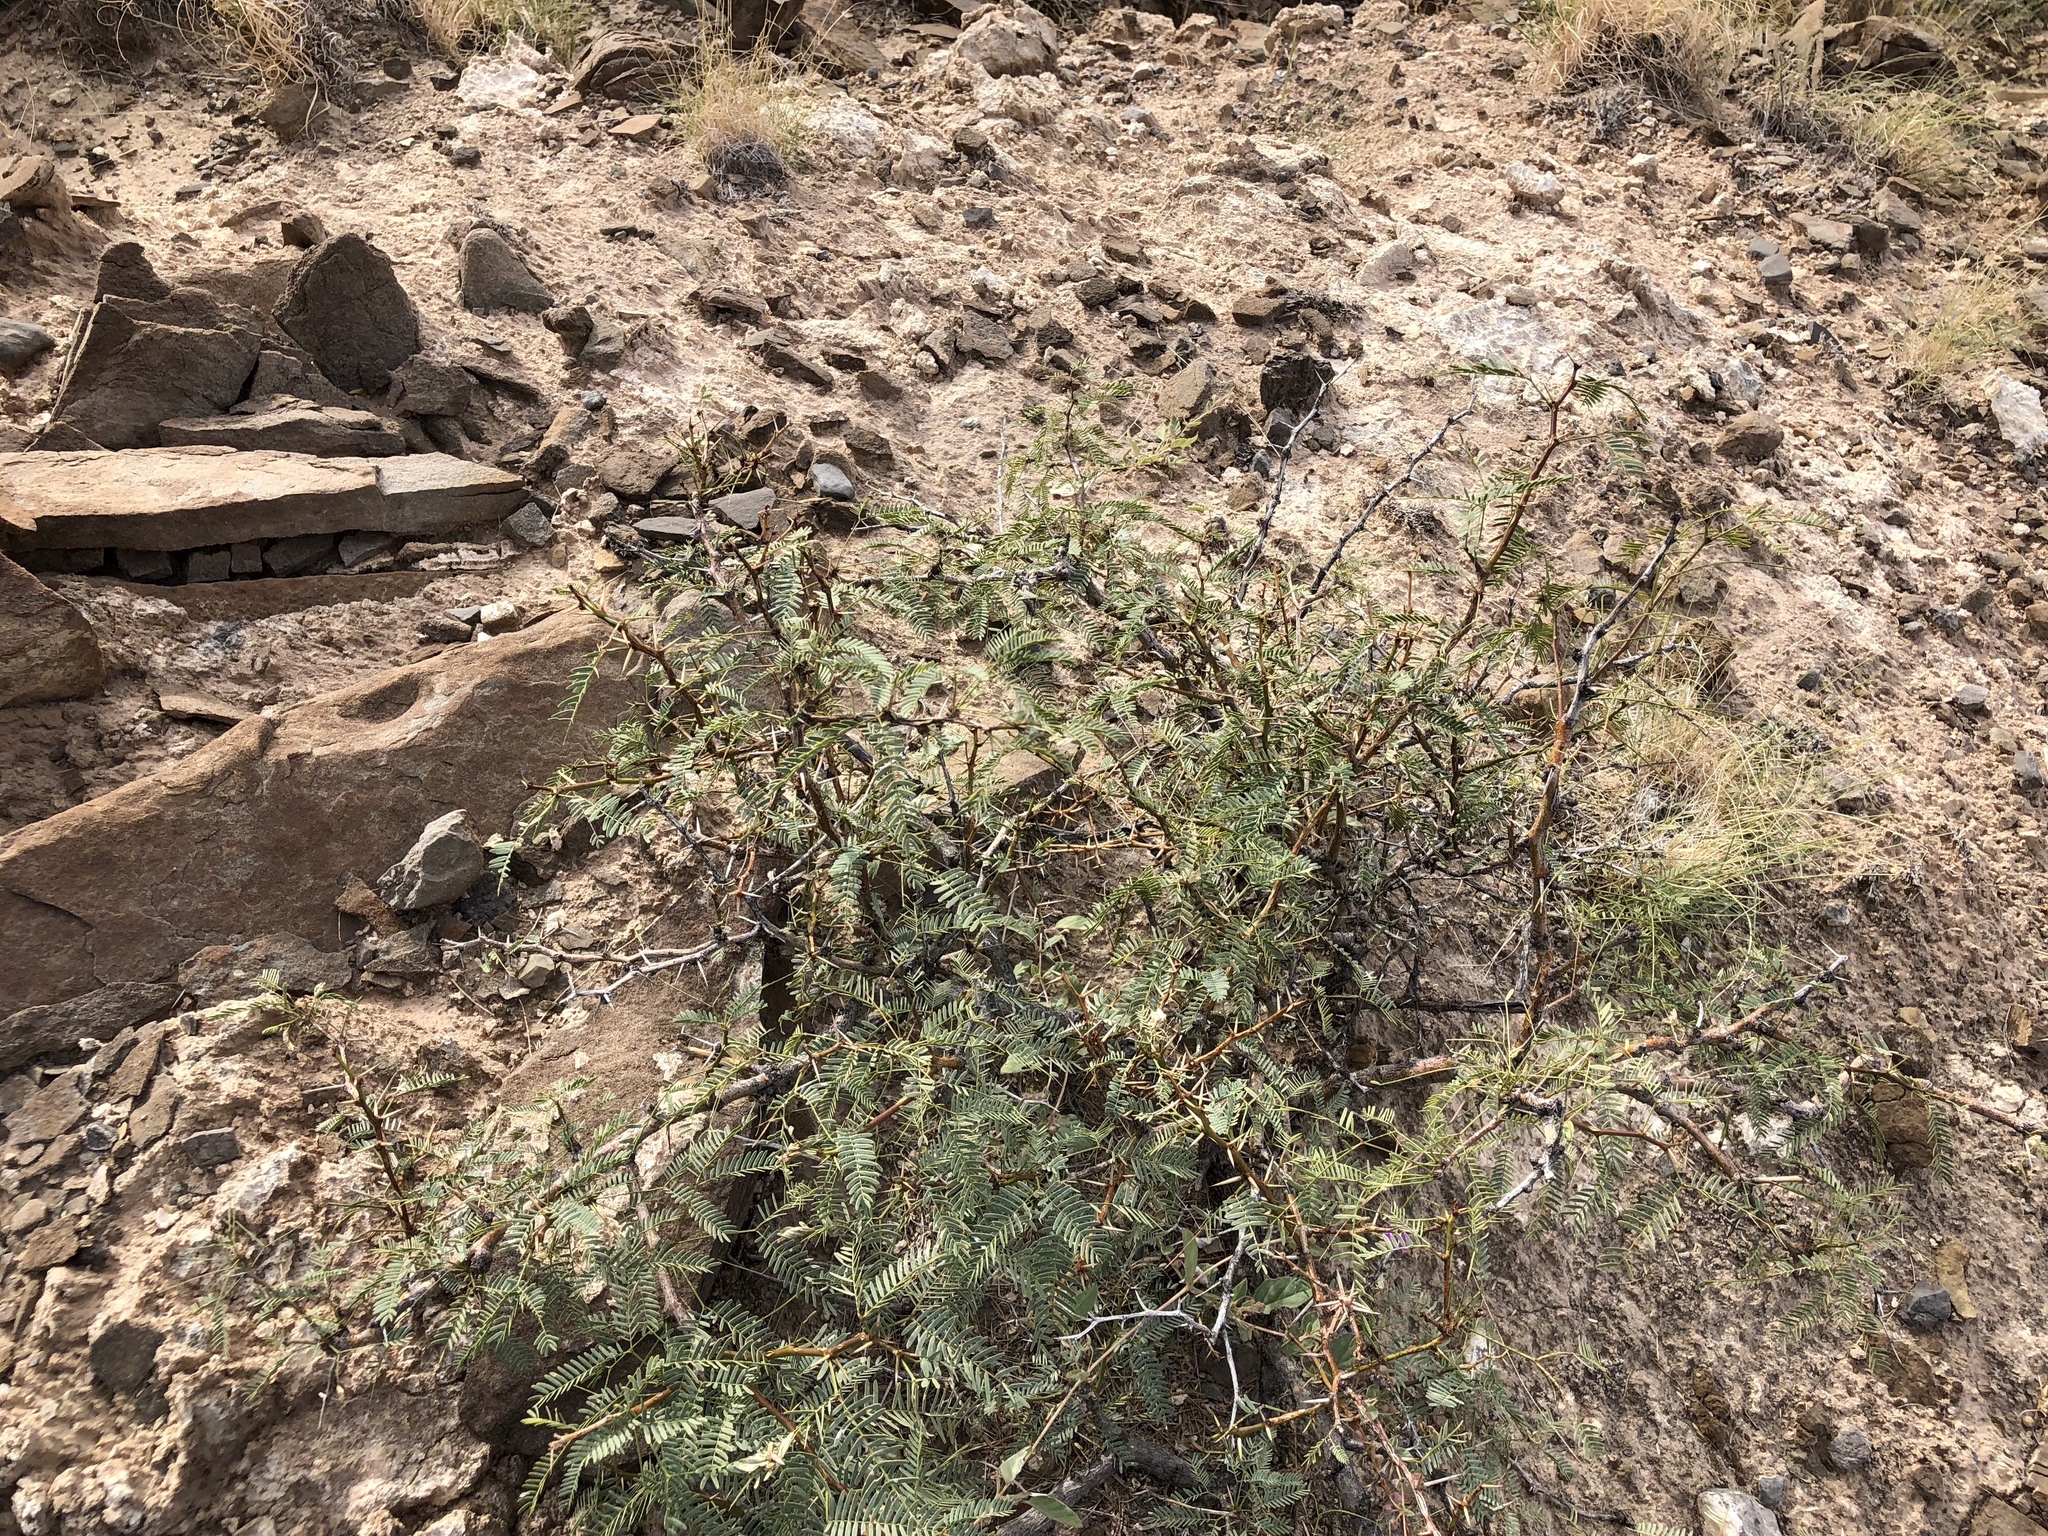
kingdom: Plantae
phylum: Tracheophyta
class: Magnoliopsida
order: Fabales
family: Fabaceae
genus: Prosopis
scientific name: Prosopis glandulosa
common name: Honey mesquite
